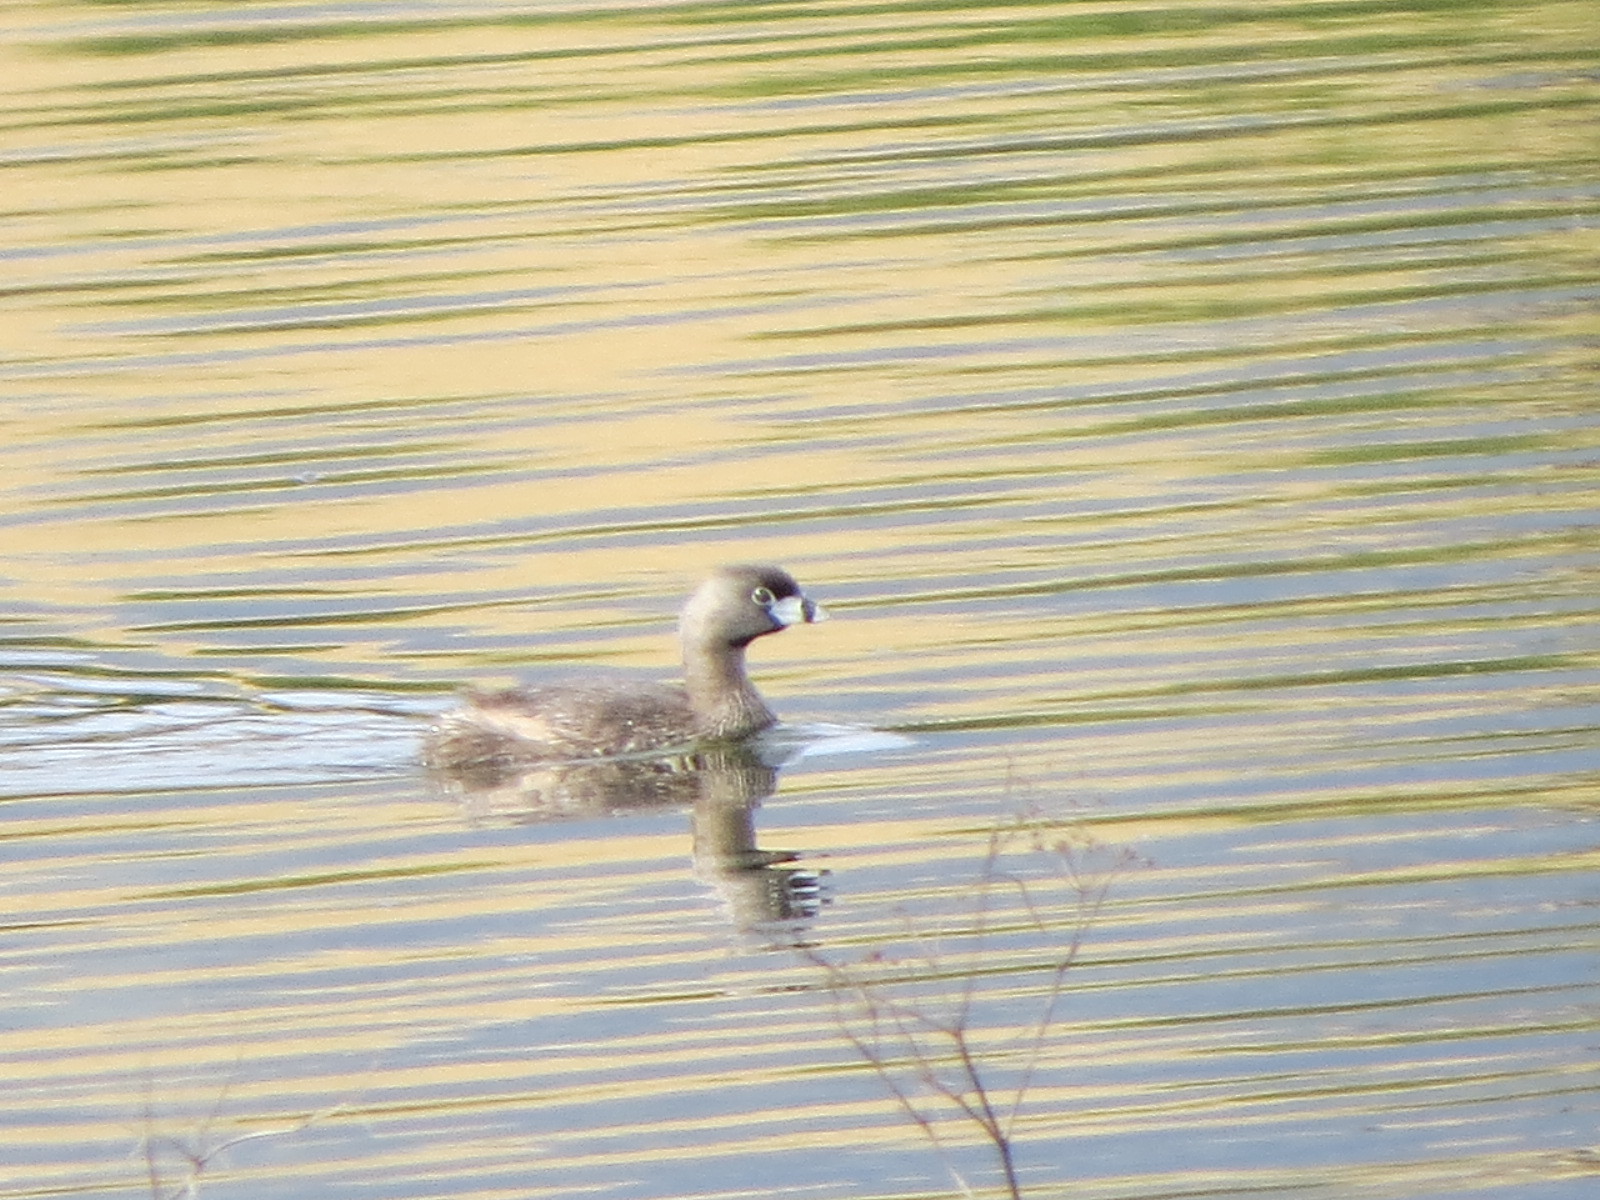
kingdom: Animalia
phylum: Chordata
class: Aves
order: Podicipediformes
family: Podicipedidae
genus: Podilymbus
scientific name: Podilymbus podiceps
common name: Pied-billed grebe
